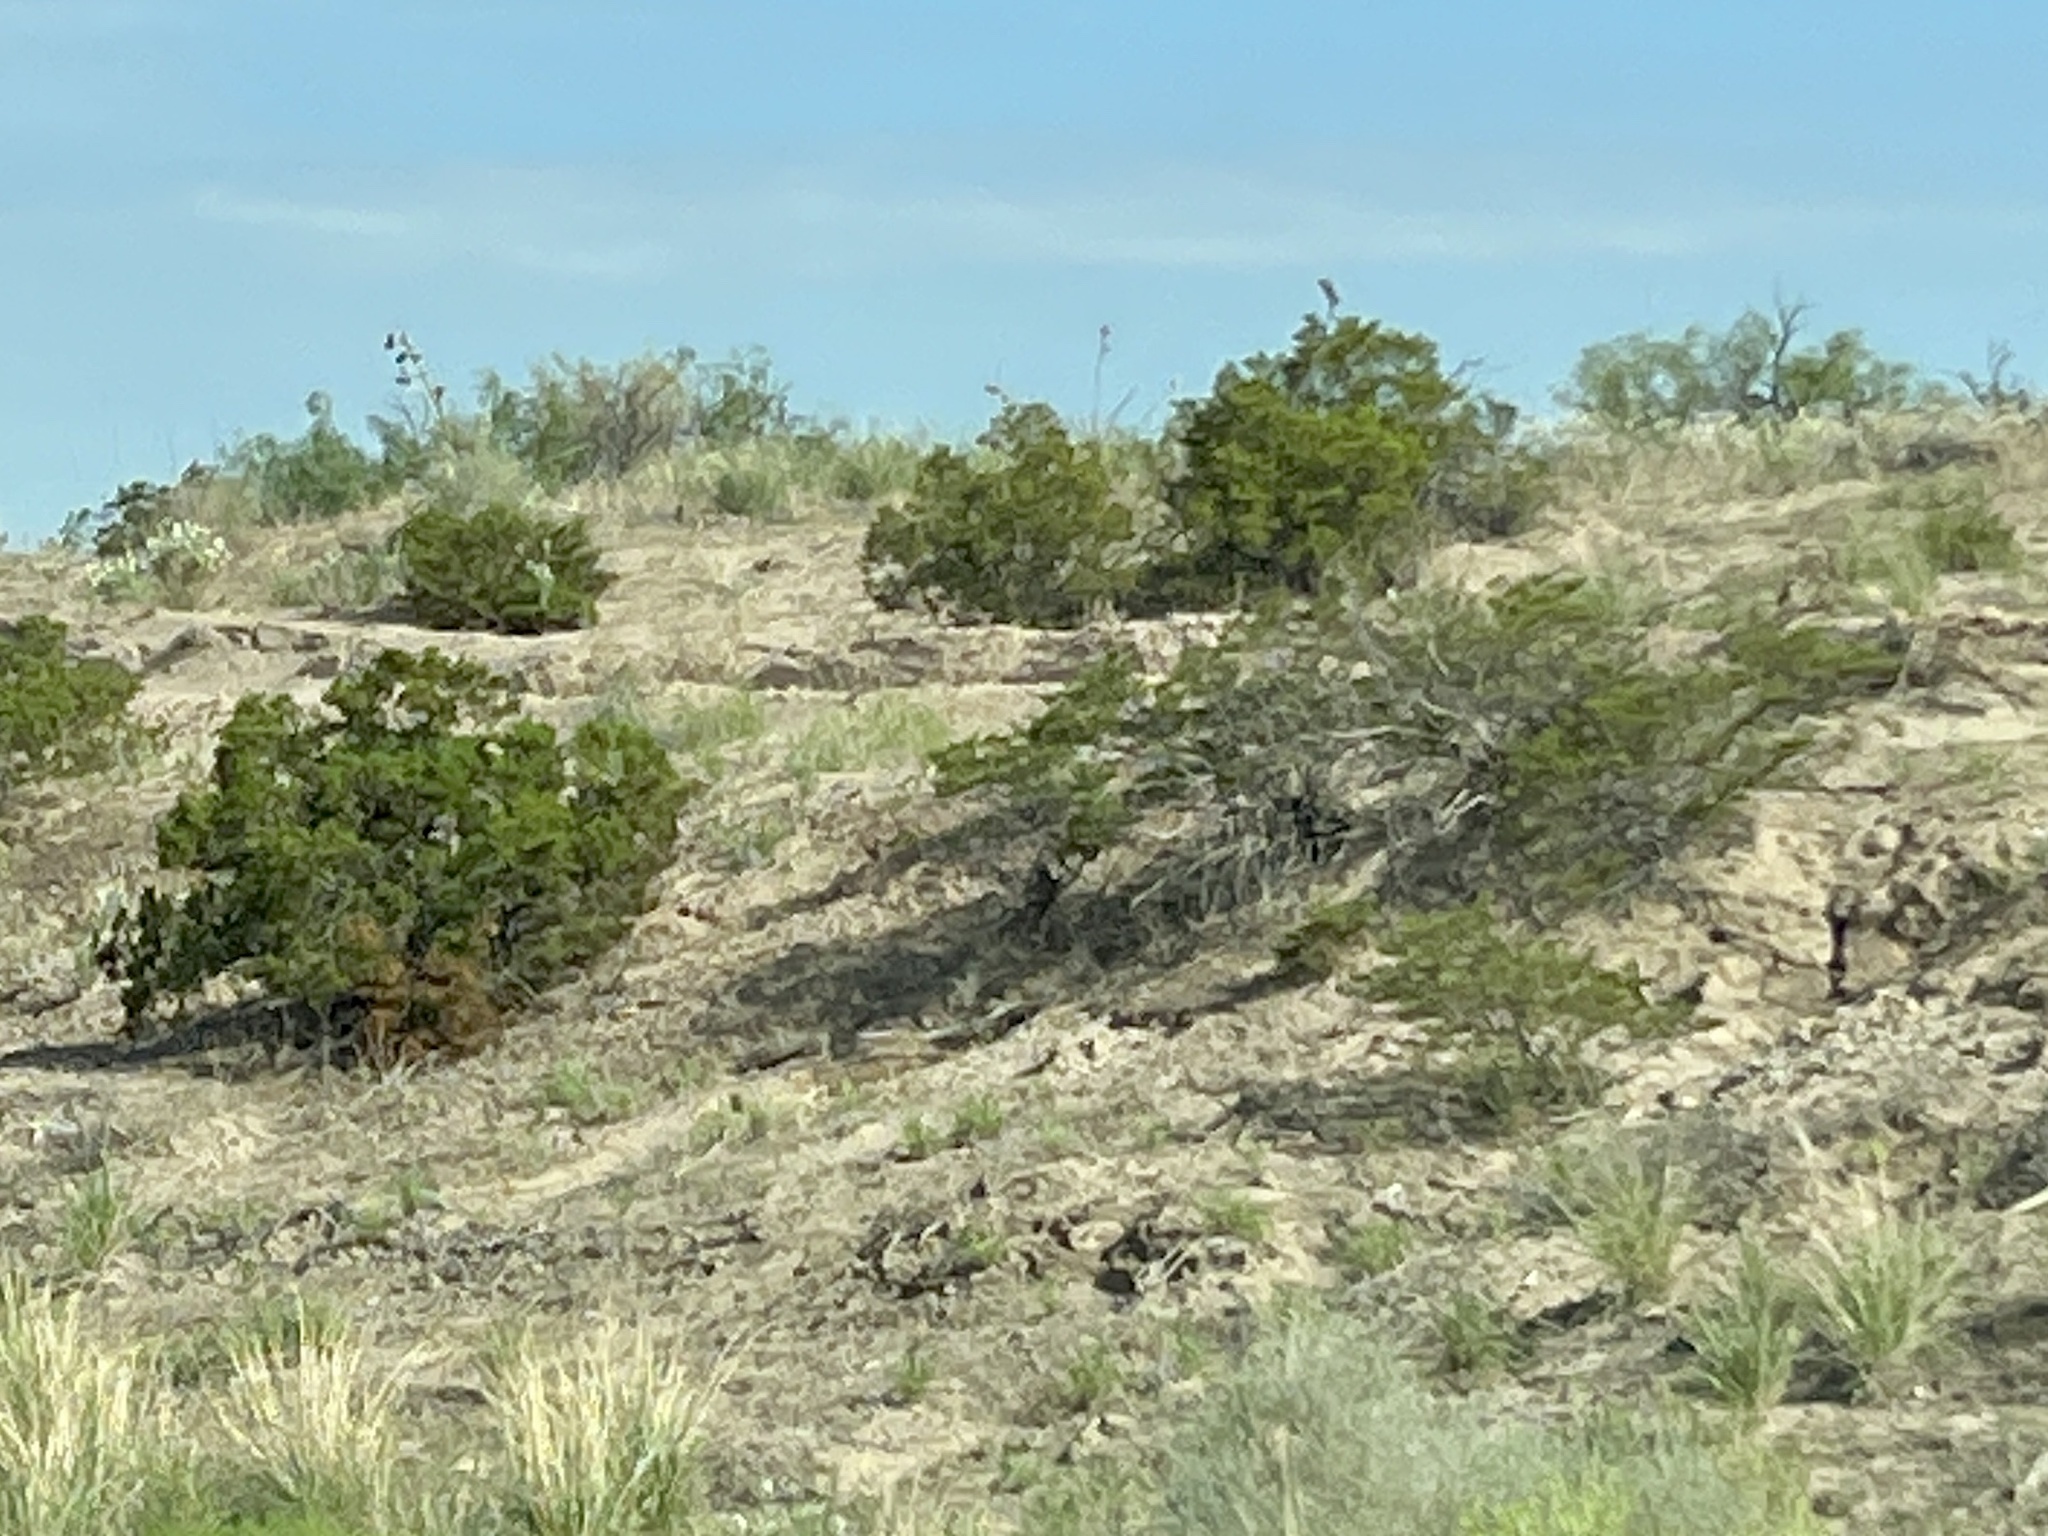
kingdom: Plantae
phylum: Tracheophyta
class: Magnoliopsida
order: Zygophyllales
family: Zygophyllaceae
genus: Larrea
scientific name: Larrea tridentata
